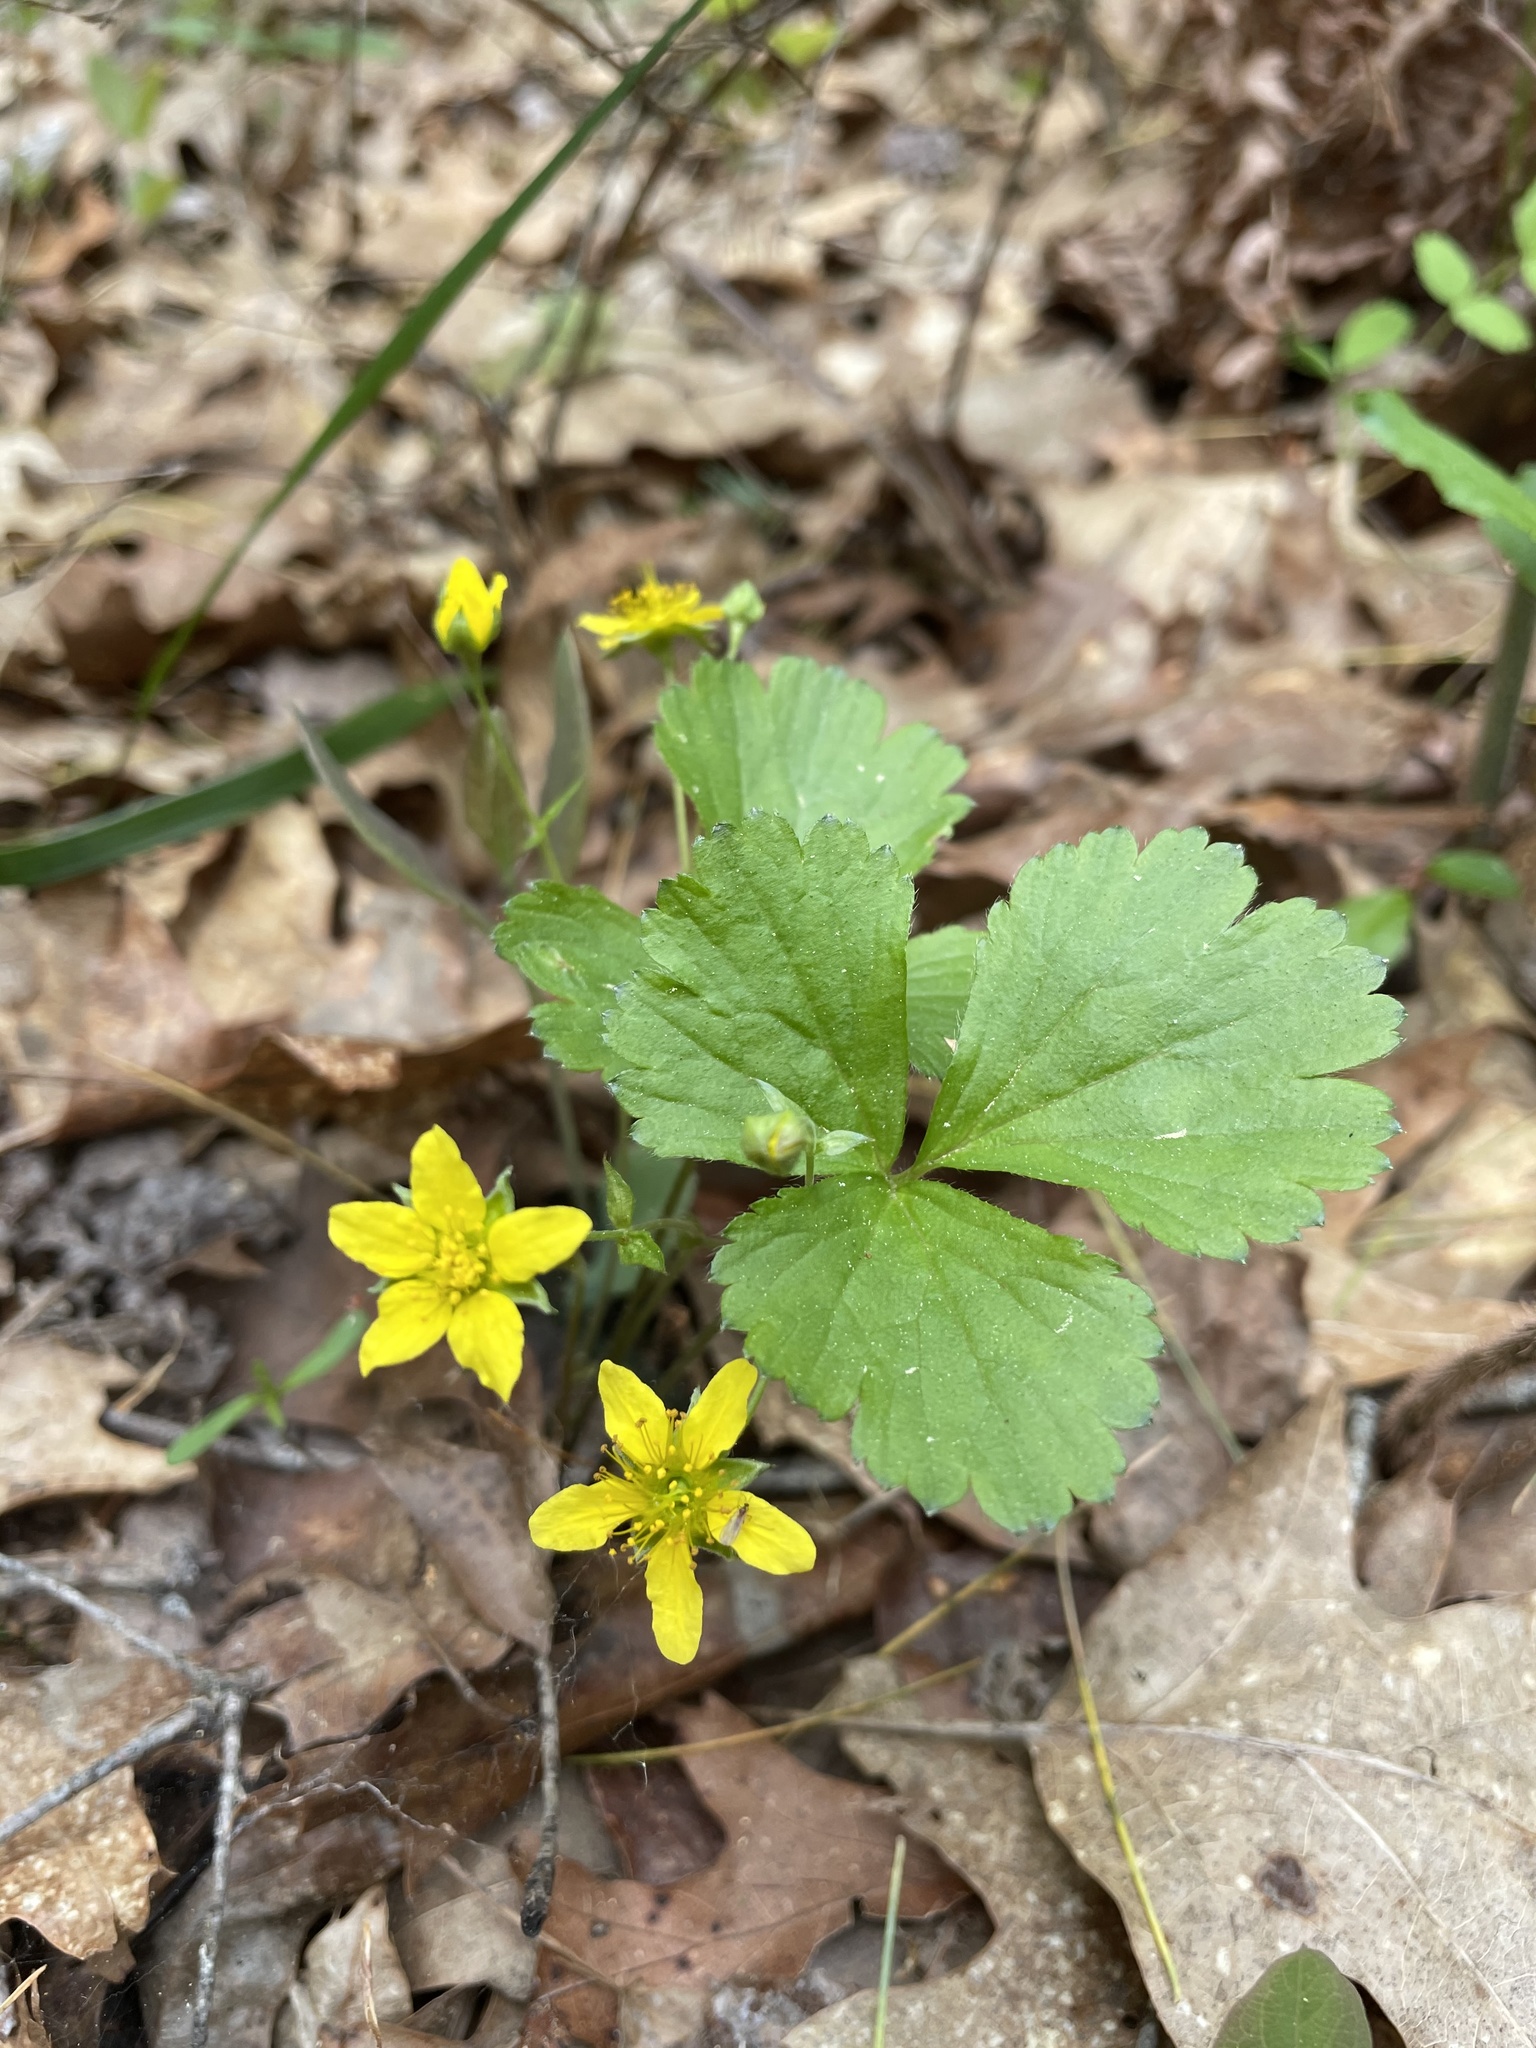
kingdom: Plantae
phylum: Tracheophyta
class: Magnoliopsida
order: Rosales
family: Rosaceae
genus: Geum
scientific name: Geum fragarioides
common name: Appalachian barren strawberry
